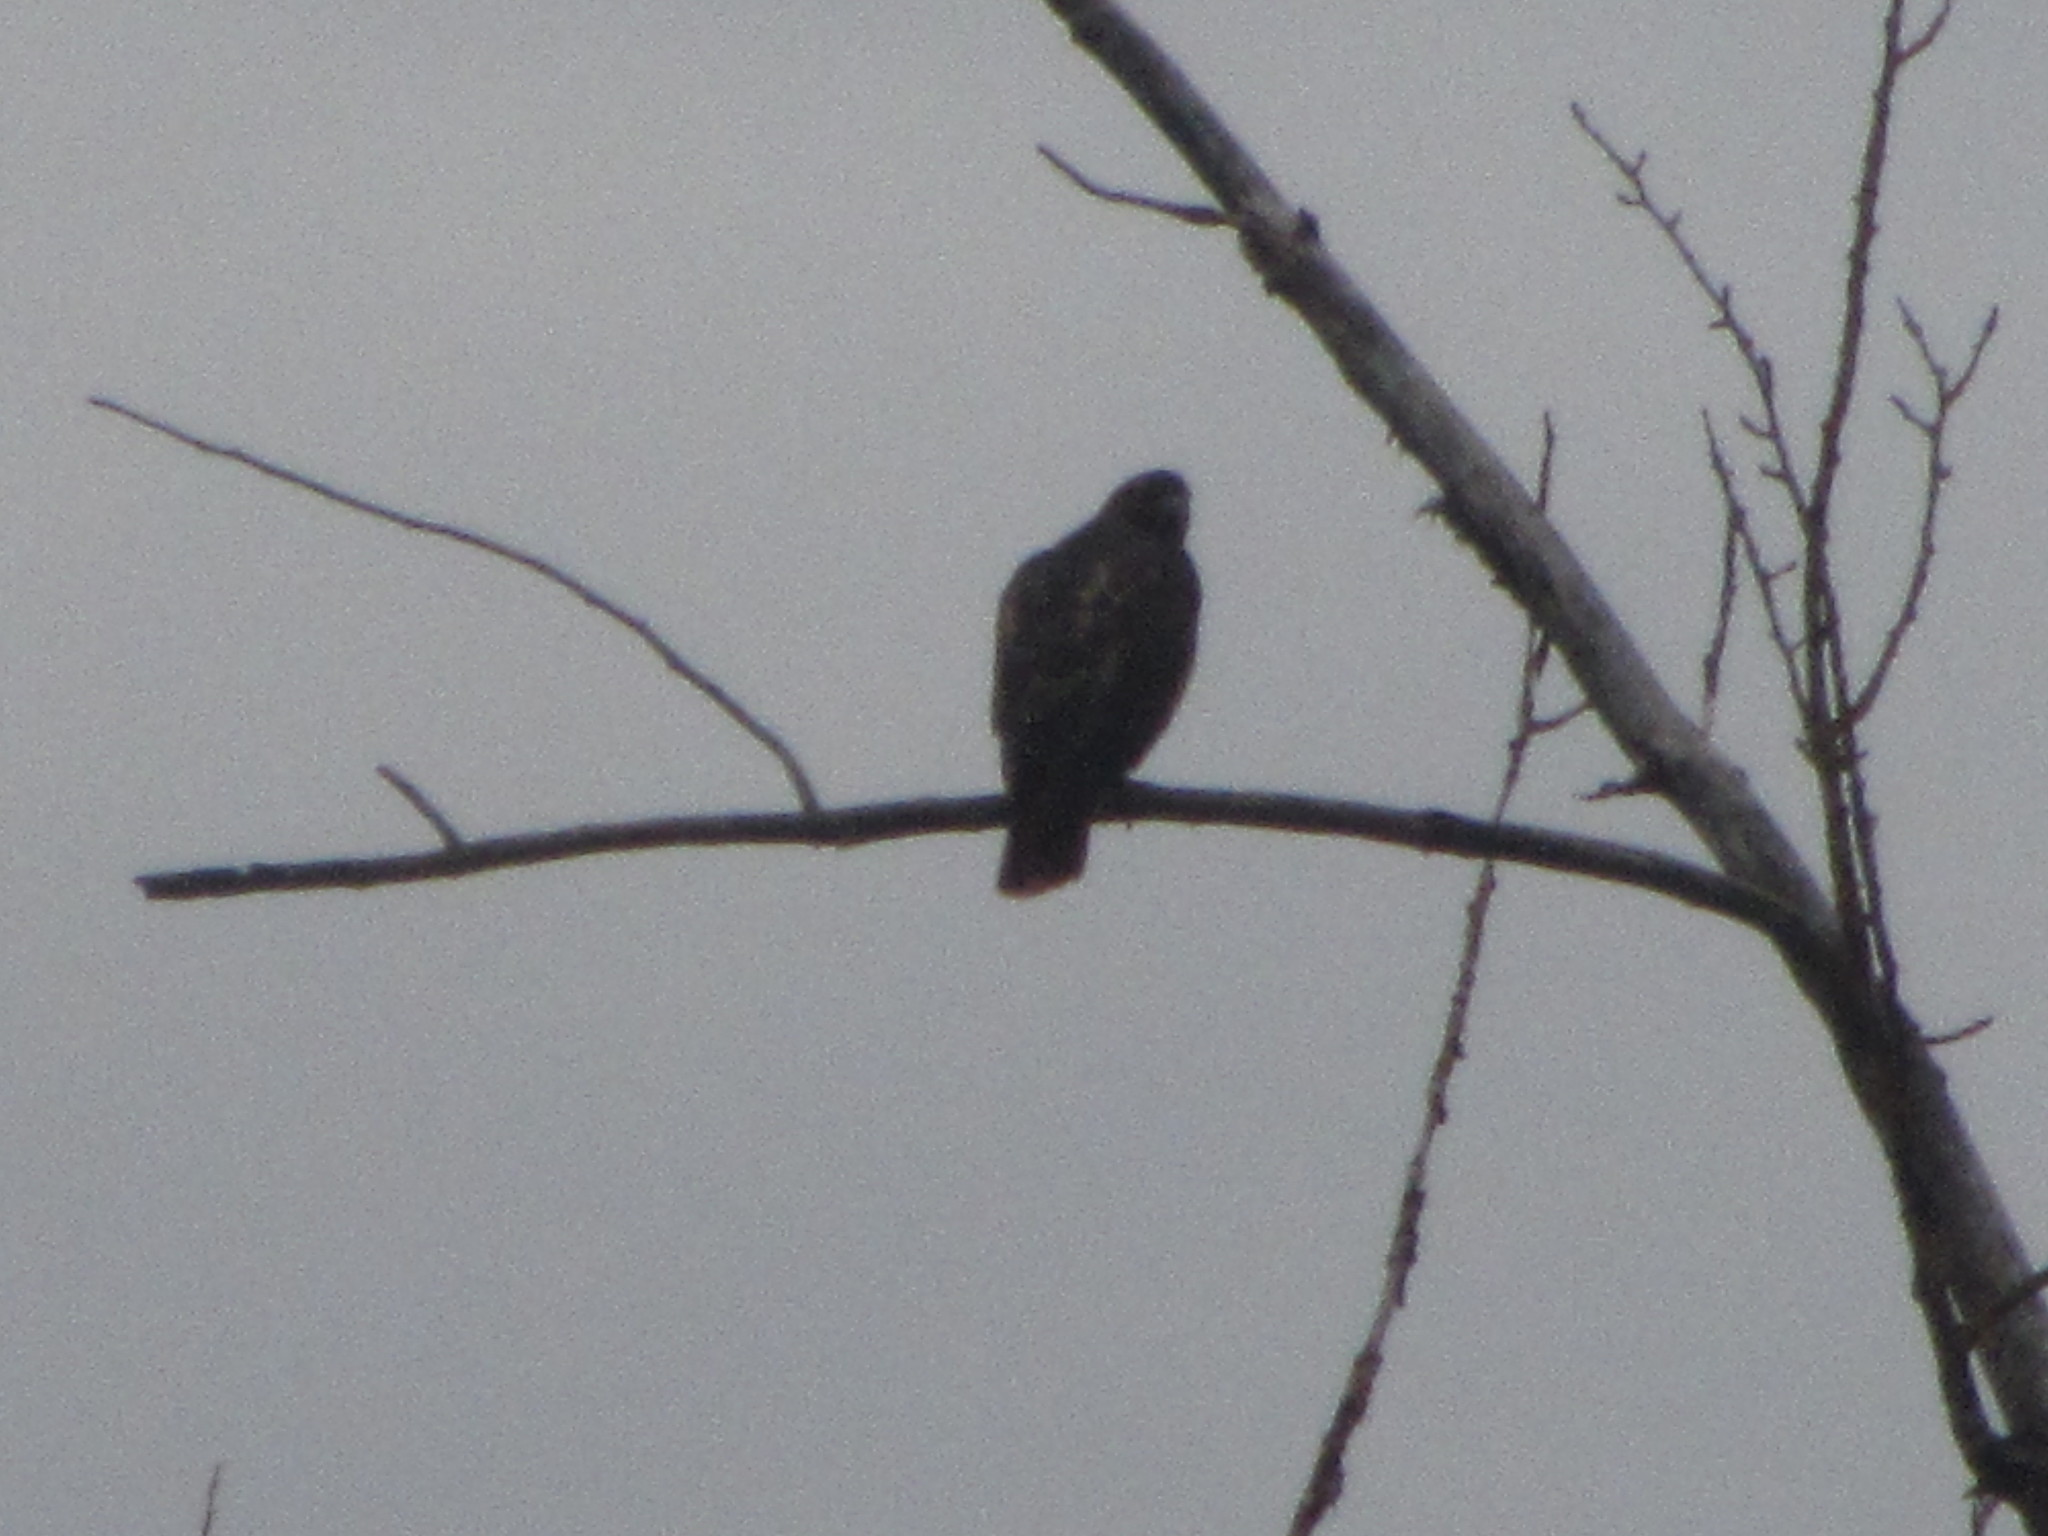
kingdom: Animalia
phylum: Chordata
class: Aves
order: Accipitriformes
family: Accipitridae
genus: Buteo
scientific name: Buteo jamaicensis
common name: Red-tailed hawk
